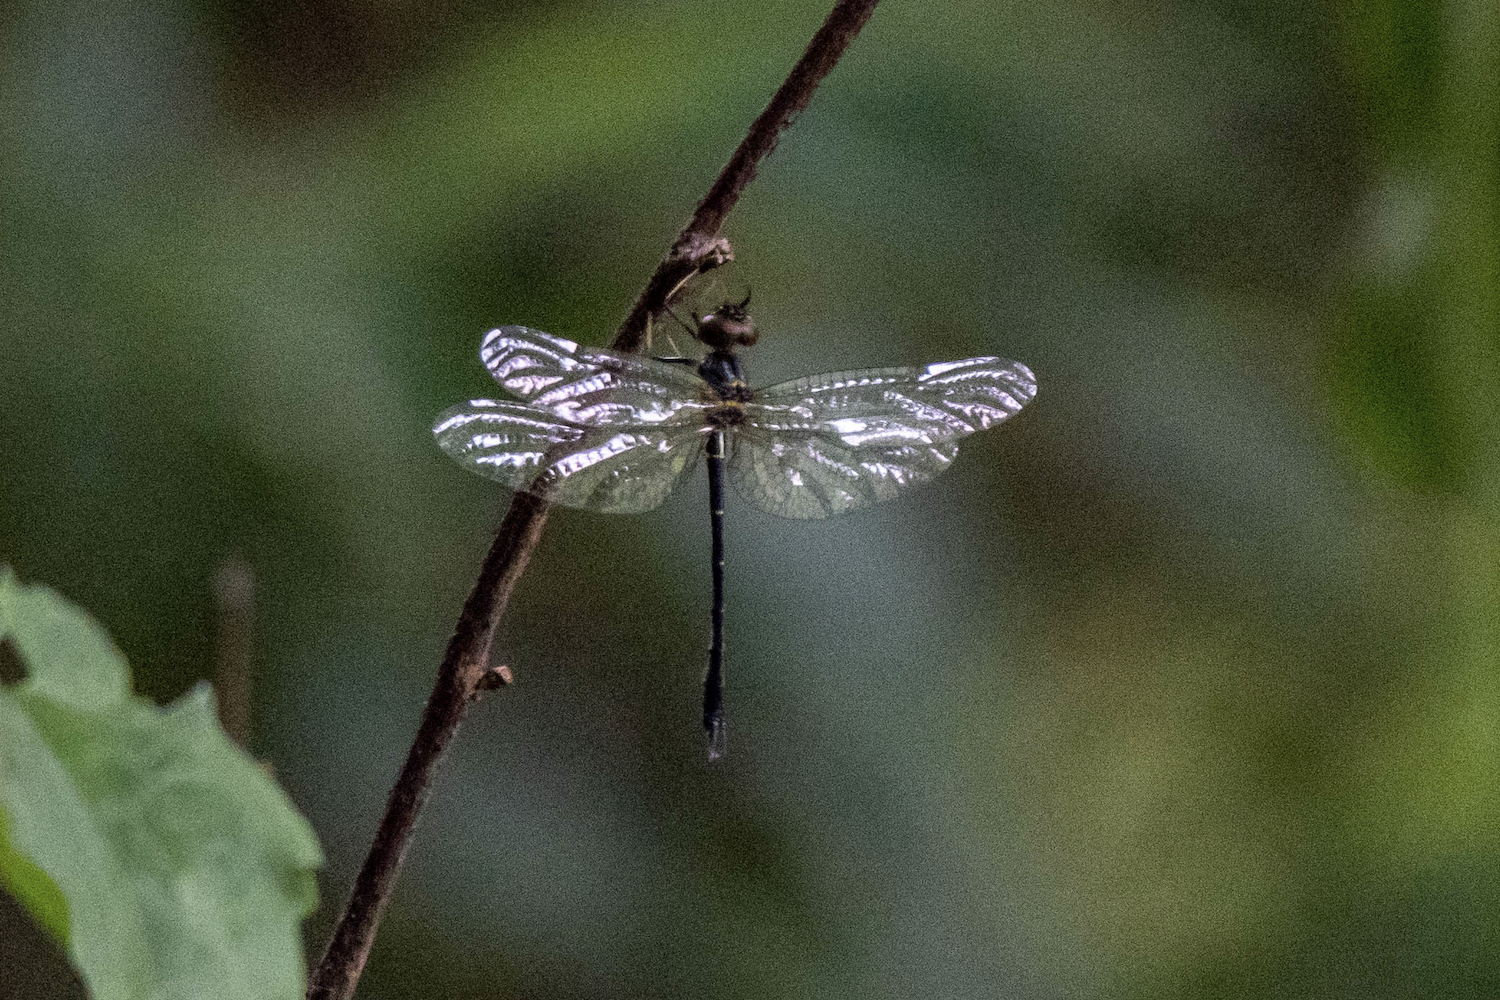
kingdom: Animalia
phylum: Arthropoda
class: Insecta
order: Odonata
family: Synthemistidae
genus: Idionyx
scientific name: Idionyx victor
